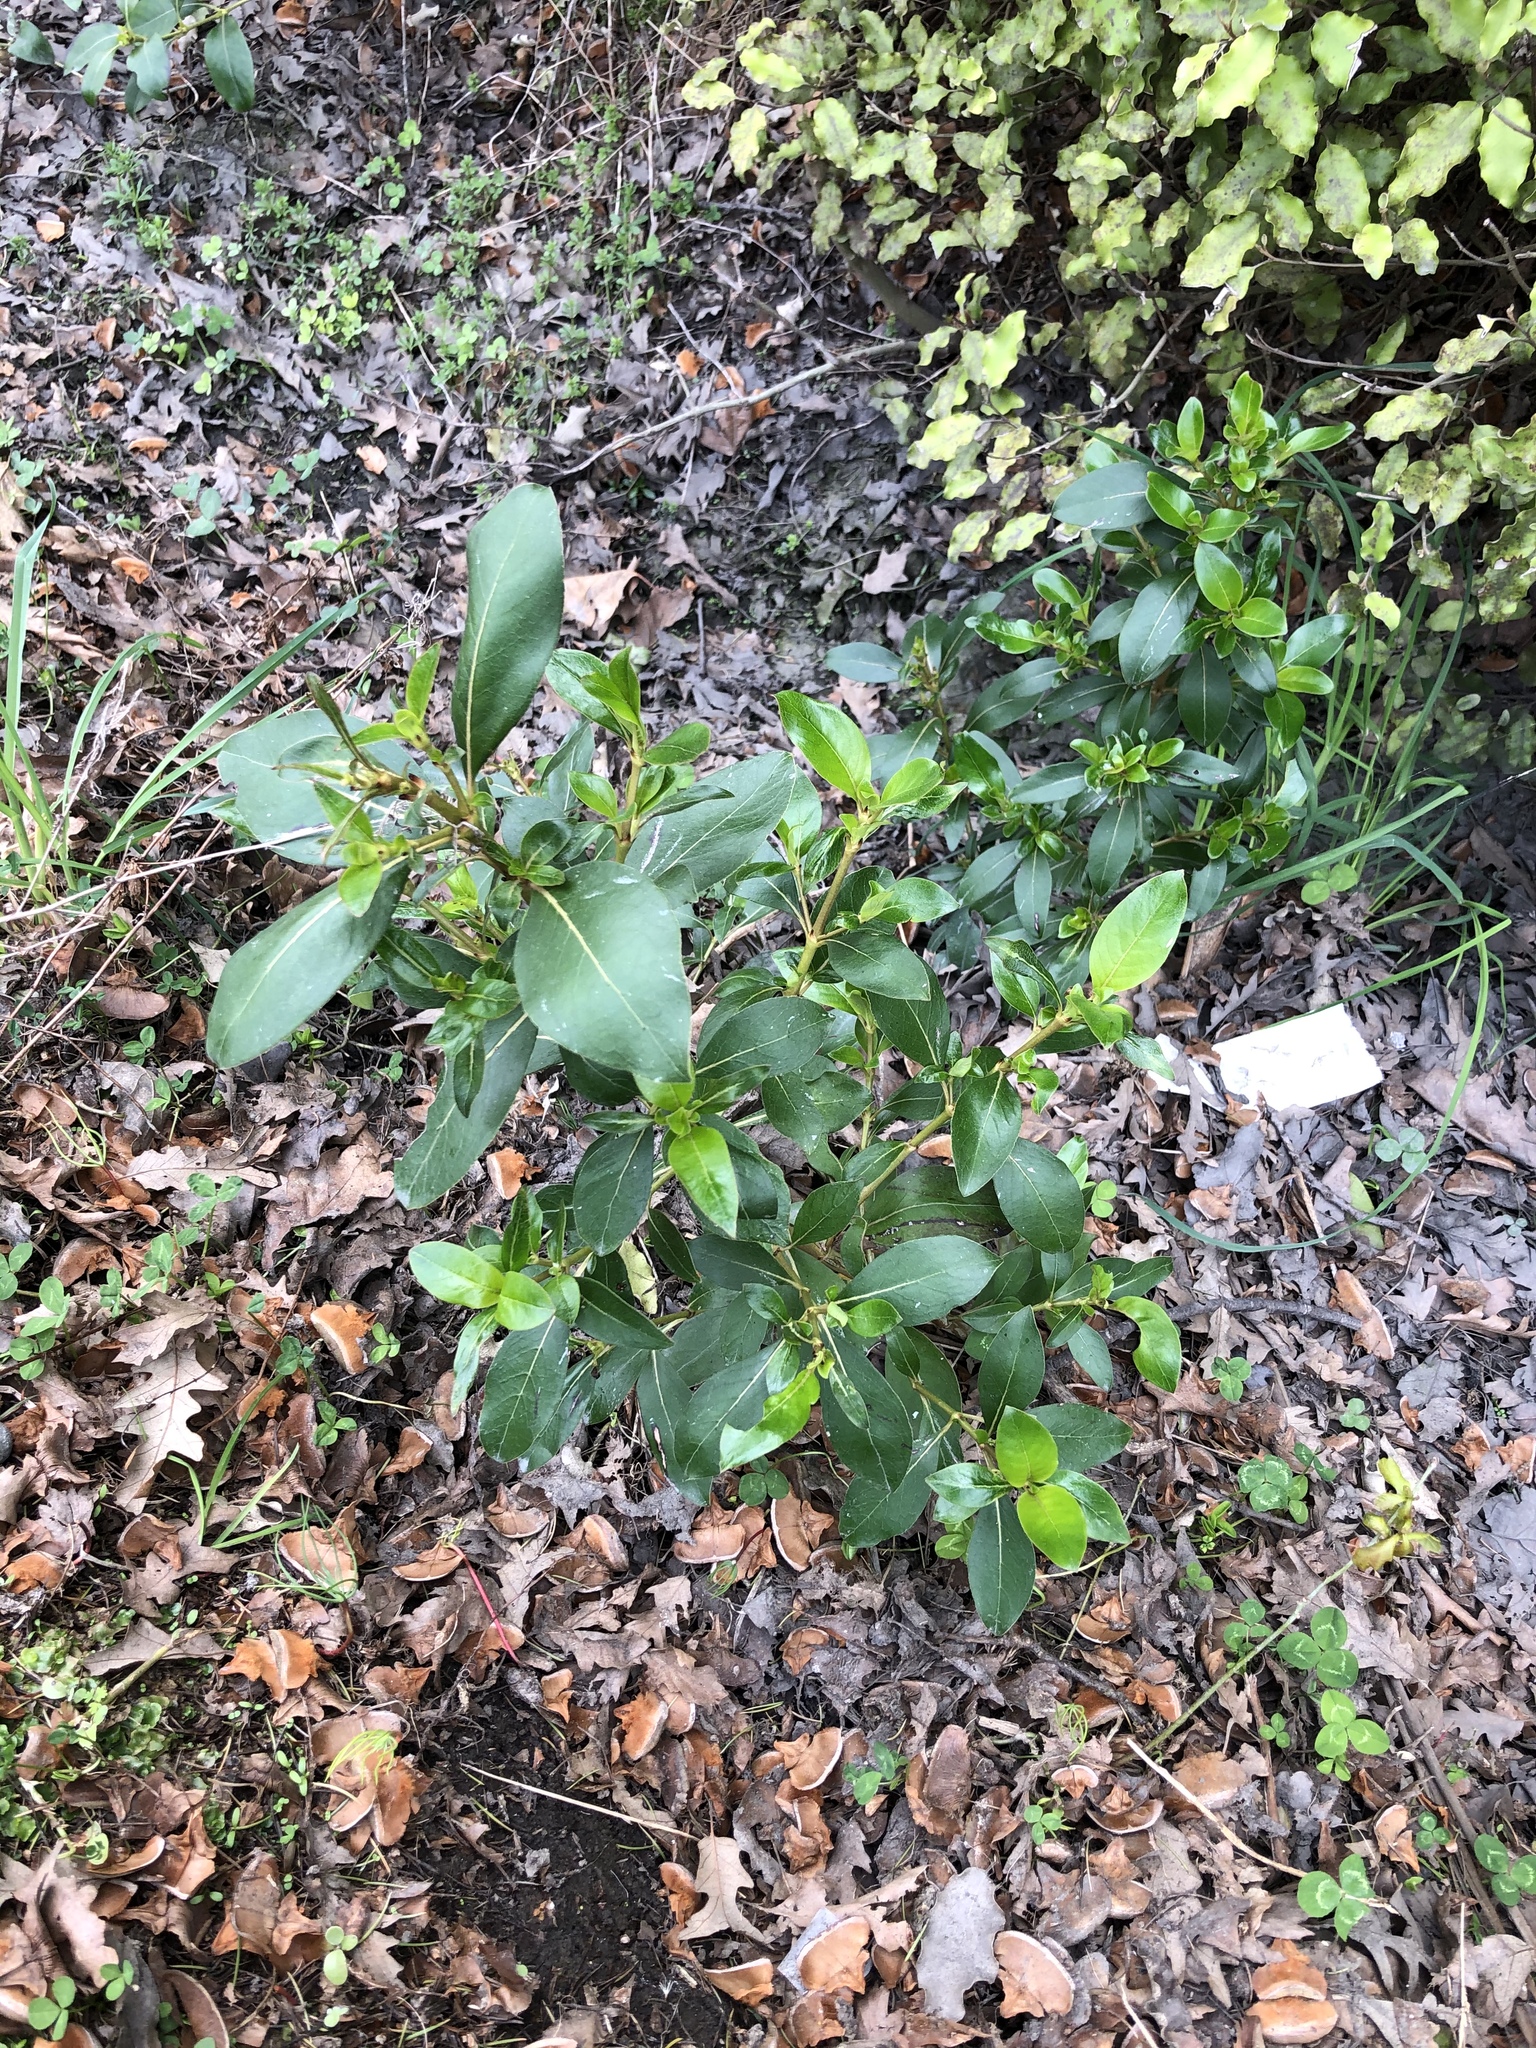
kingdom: Plantae
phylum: Tracheophyta
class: Magnoliopsida
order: Gentianales
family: Rubiaceae
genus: Coprosma
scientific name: Coprosma robusta
